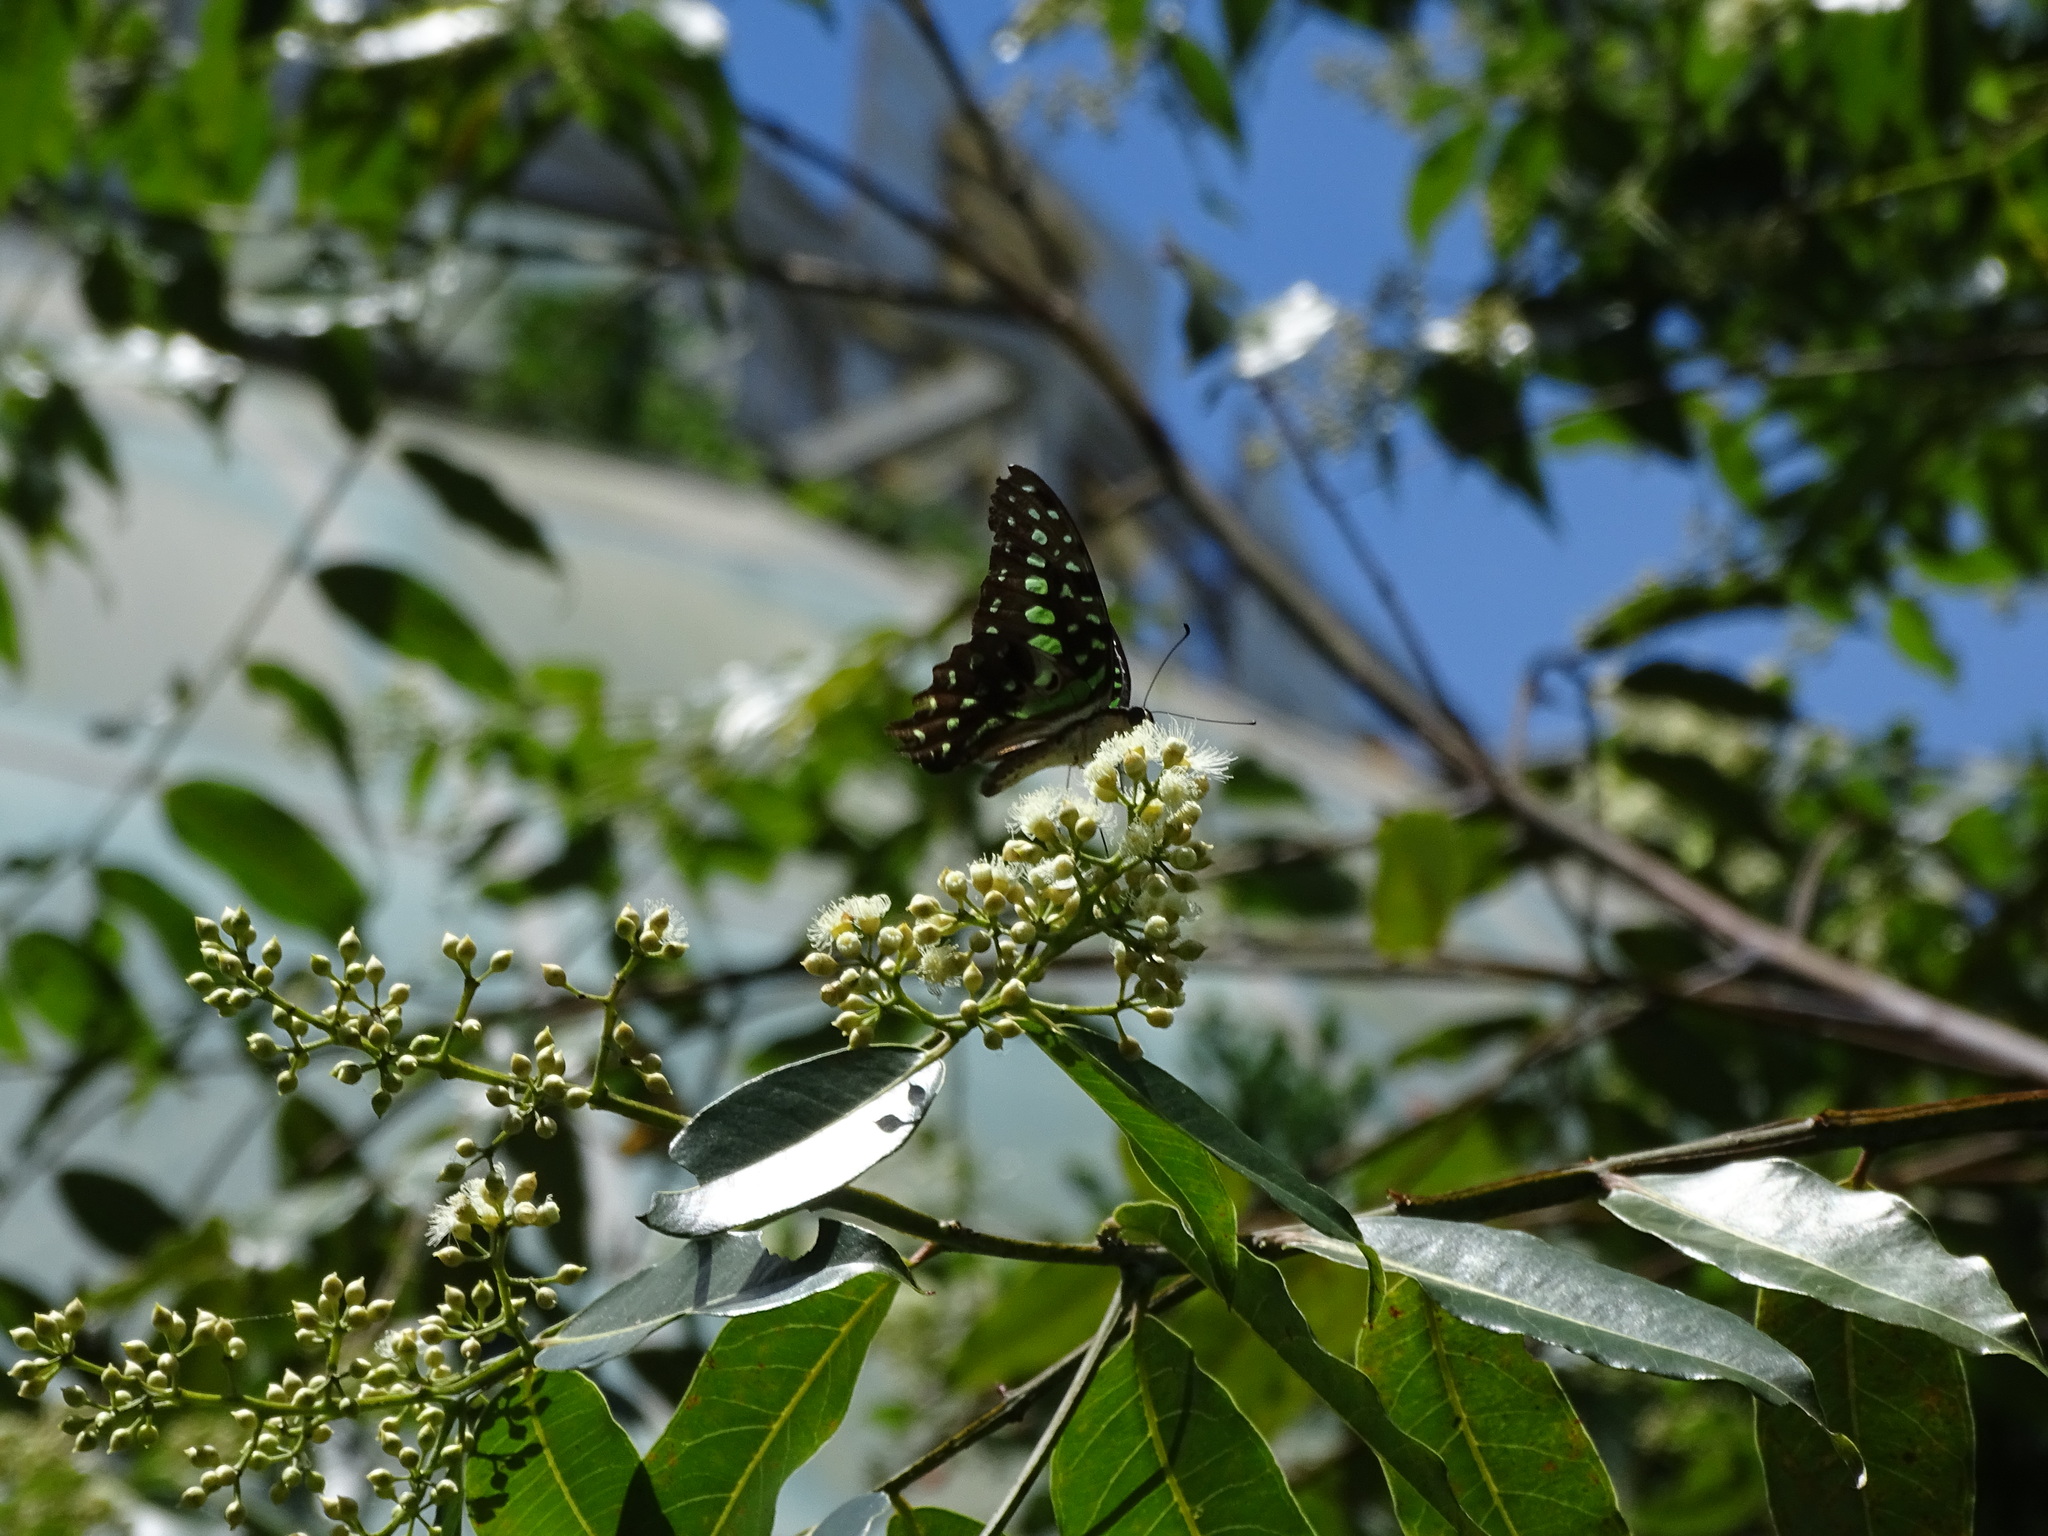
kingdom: Animalia
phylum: Arthropoda
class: Insecta
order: Lepidoptera
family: Papilionidae
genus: Graphium
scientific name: Graphium agamemnon
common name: Tailed jay
